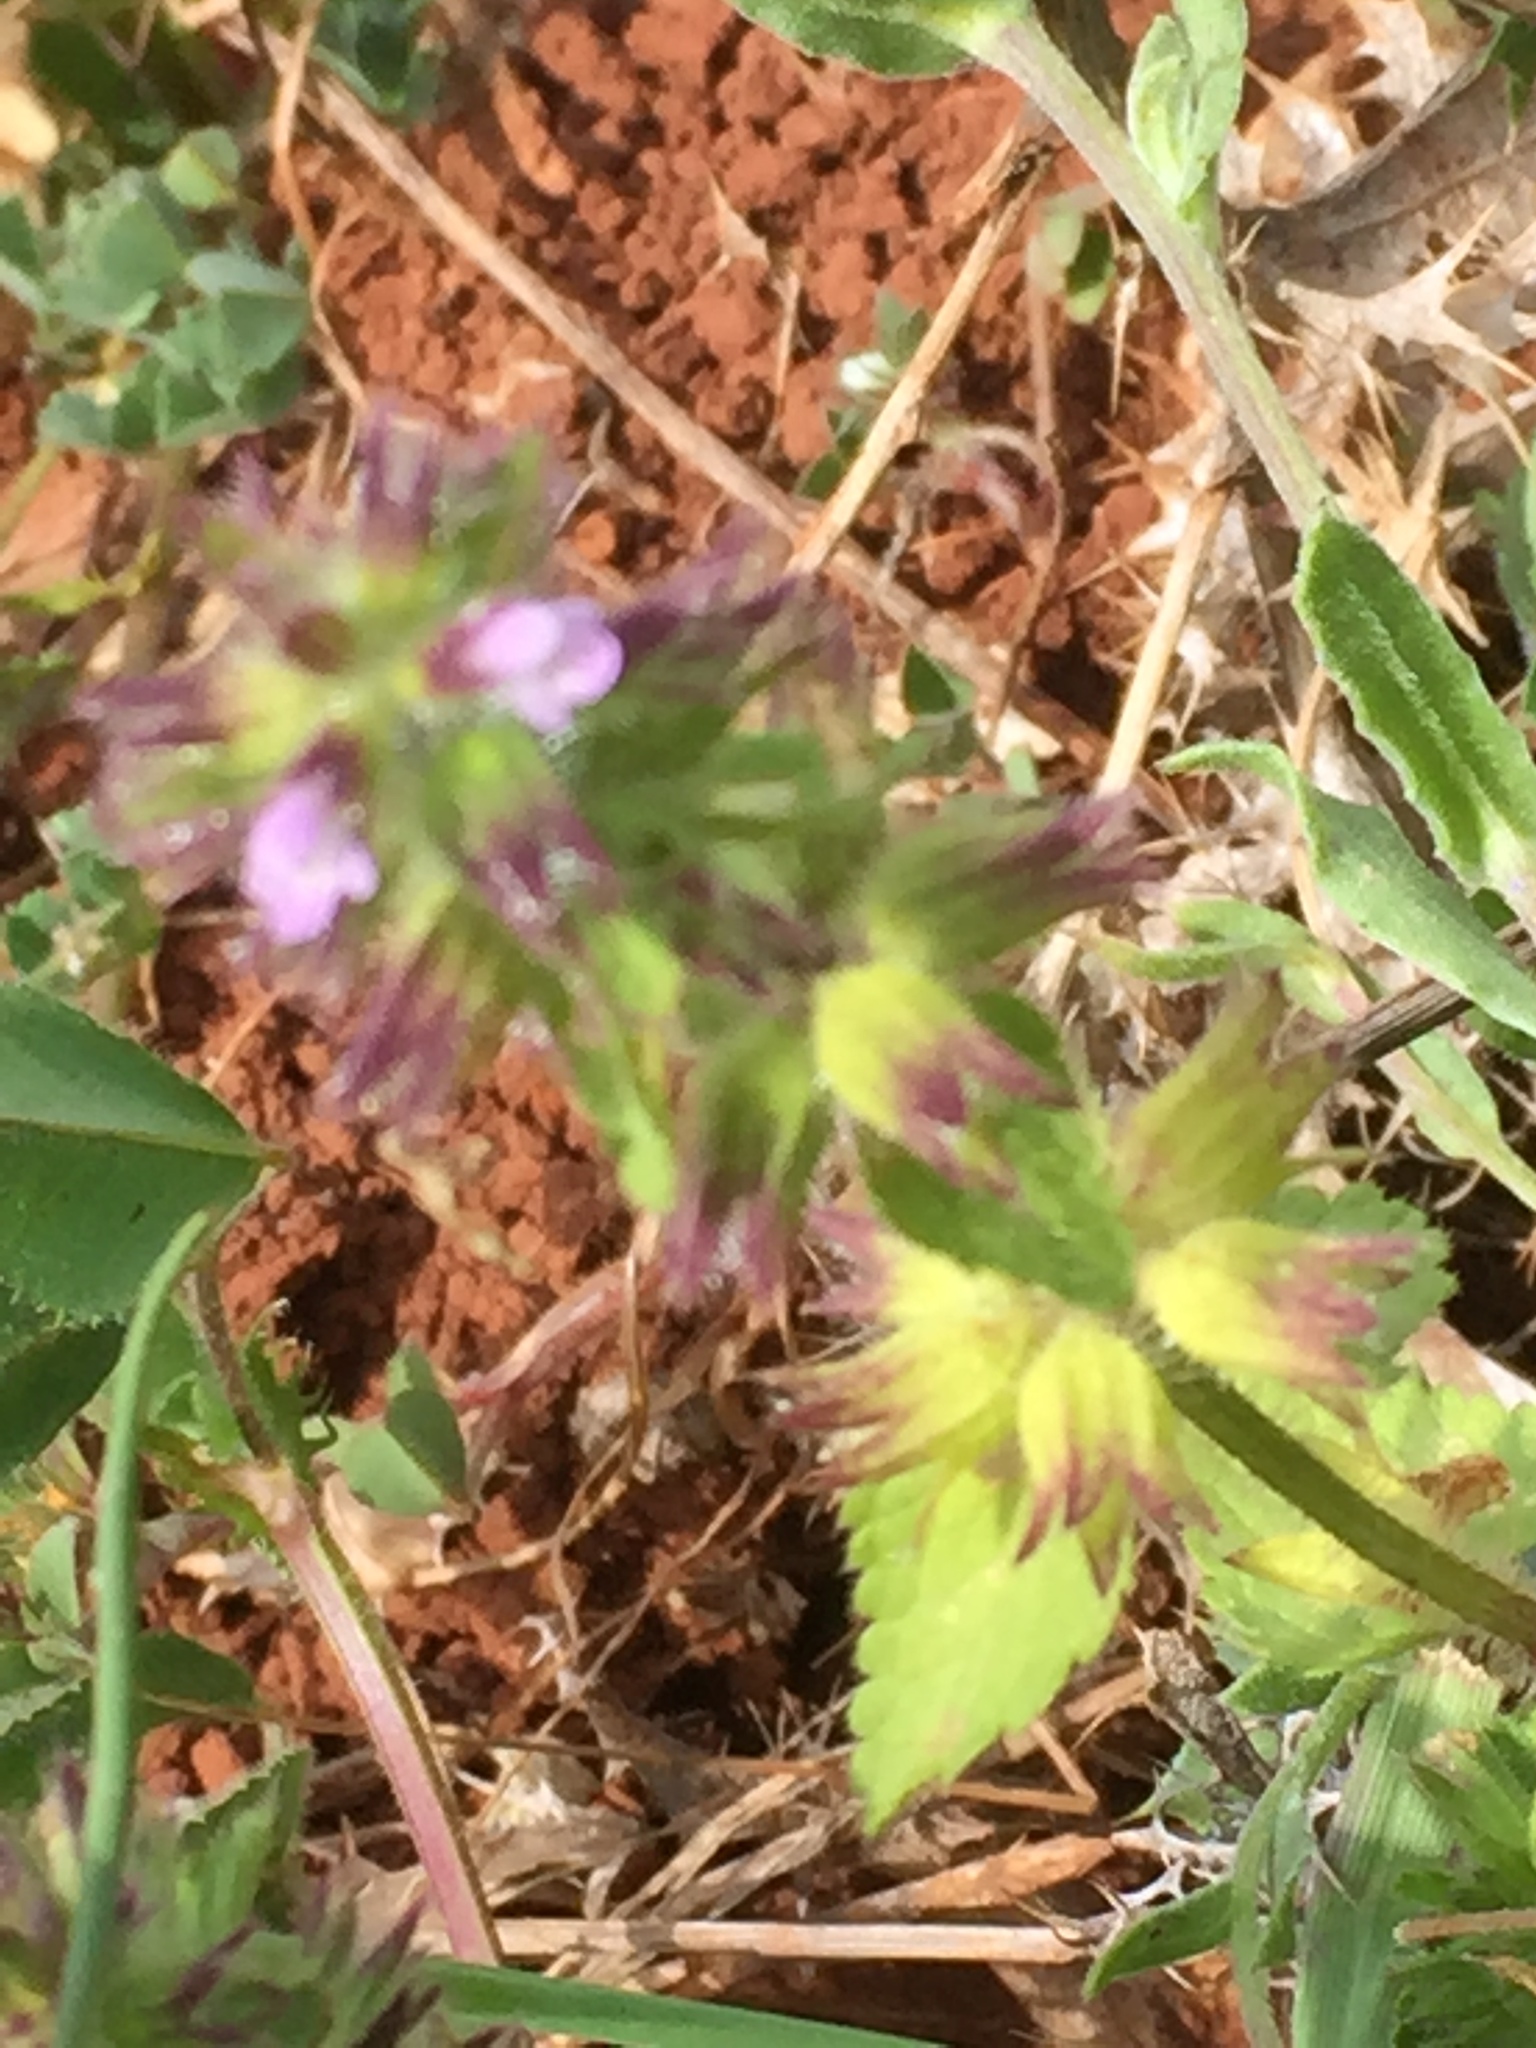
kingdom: Plantae
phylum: Tracheophyta
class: Magnoliopsida
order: Lamiales
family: Lamiaceae
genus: Stachys
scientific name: Stachys arvensis
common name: Field woundwort
